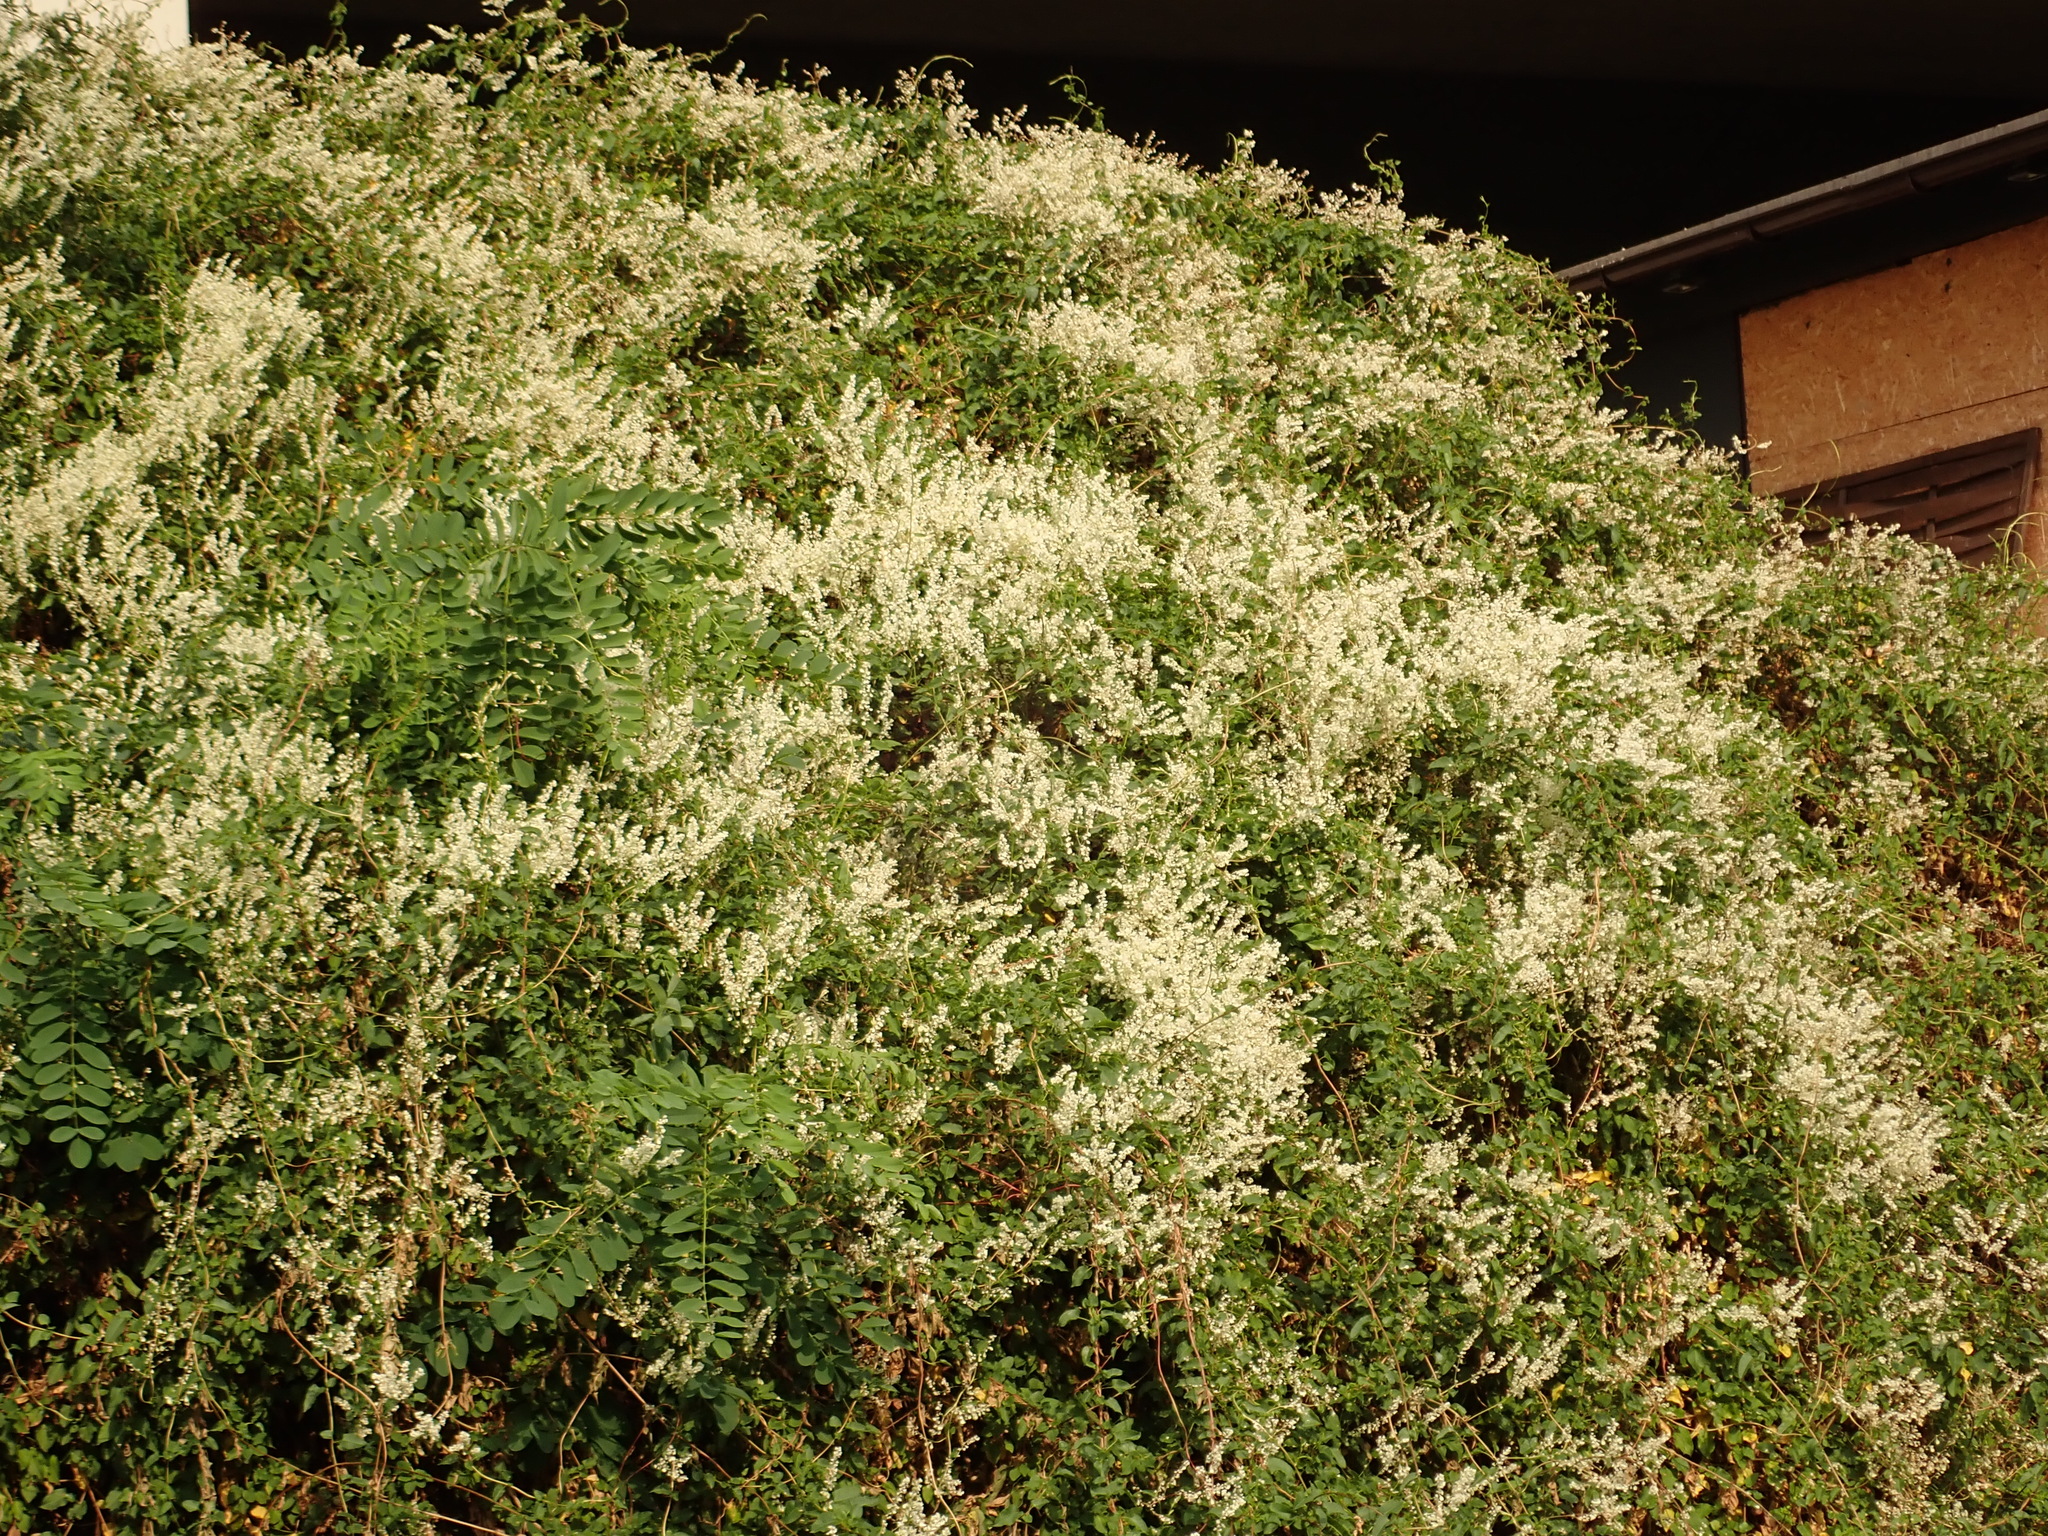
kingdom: Plantae
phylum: Tracheophyta
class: Magnoliopsida
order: Caryophyllales
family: Polygonaceae
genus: Fallopia
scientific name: Fallopia baldschuanica
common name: Russian-vine
